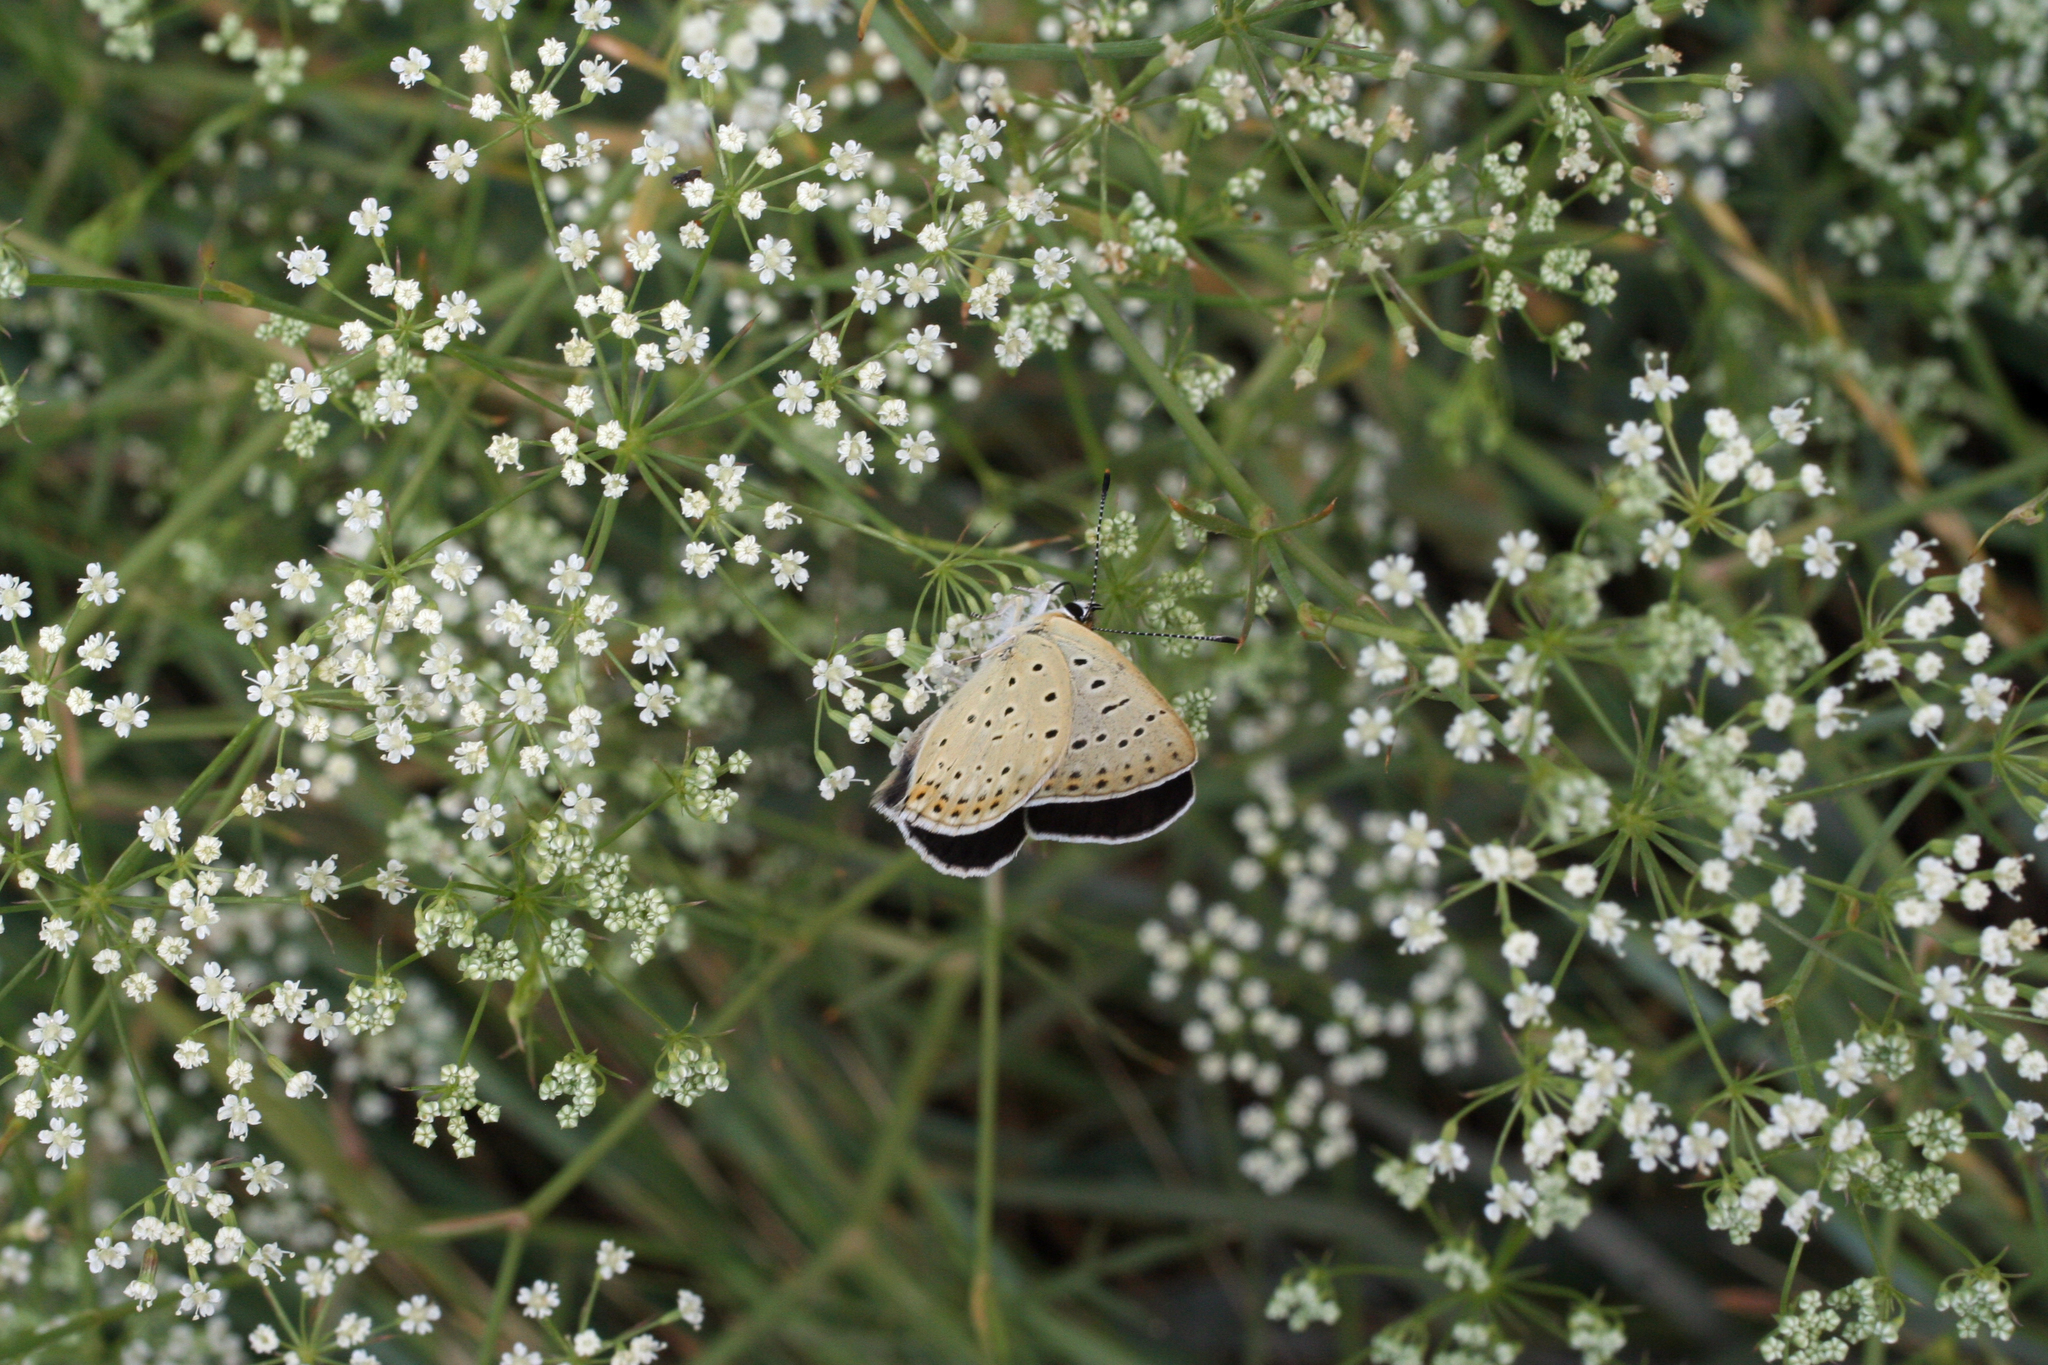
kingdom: Plantae
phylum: Tracheophyta
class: Magnoliopsida
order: Apiales
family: Apiaceae
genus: Falcaria
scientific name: Falcaria vulgaris
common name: Longleaf
